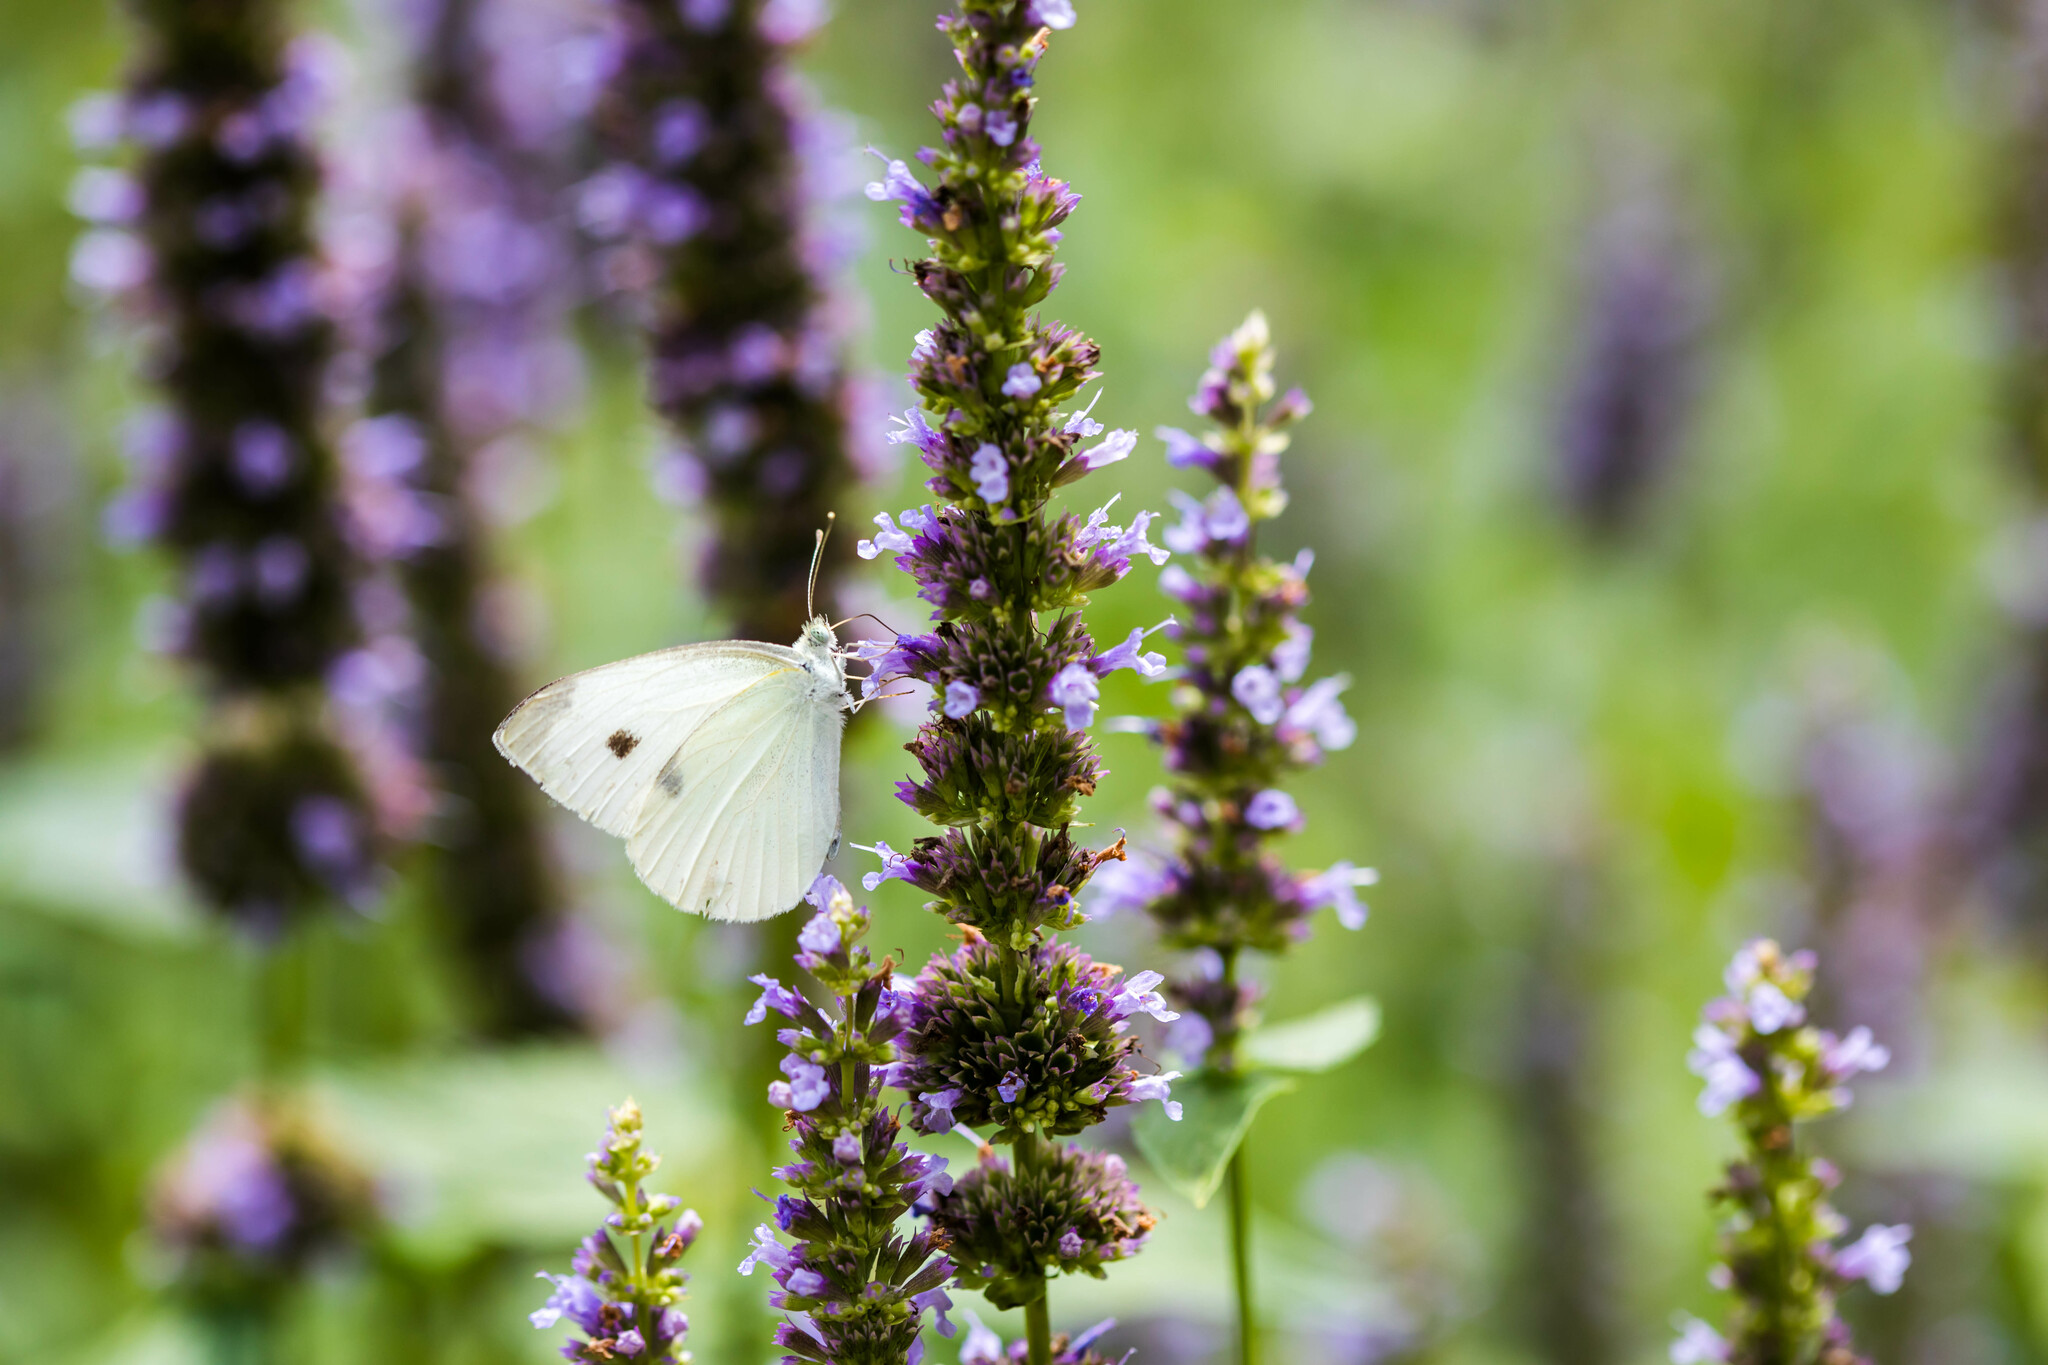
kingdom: Animalia
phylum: Arthropoda
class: Insecta
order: Lepidoptera
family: Pieridae
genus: Pieris
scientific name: Pieris rapae
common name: Small white
